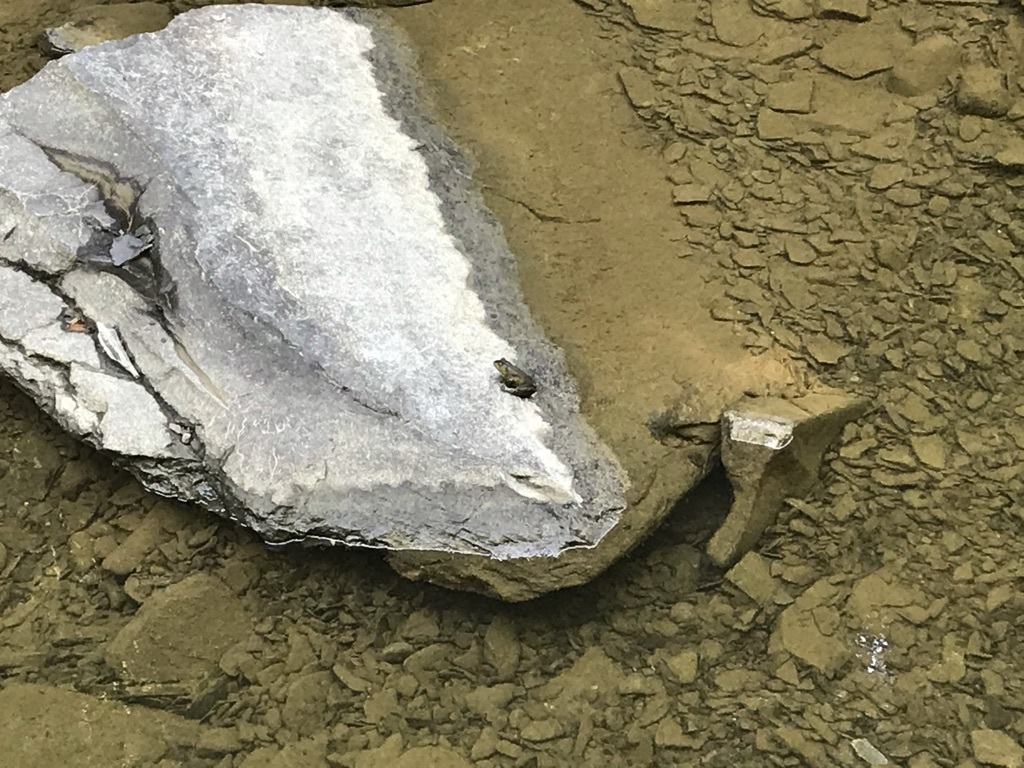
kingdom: Animalia
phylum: Chordata
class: Amphibia
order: Anura
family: Ranidae
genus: Lithobates
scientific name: Lithobates
